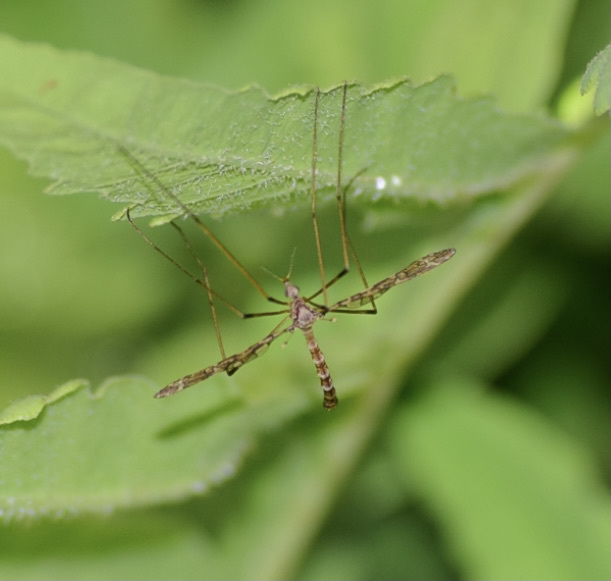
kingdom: Animalia
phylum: Arthropoda
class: Insecta
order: Diptera
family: Limoniidae
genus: Epiphragma
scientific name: Epiphragma fasciapenne
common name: Band-winged crane fly
